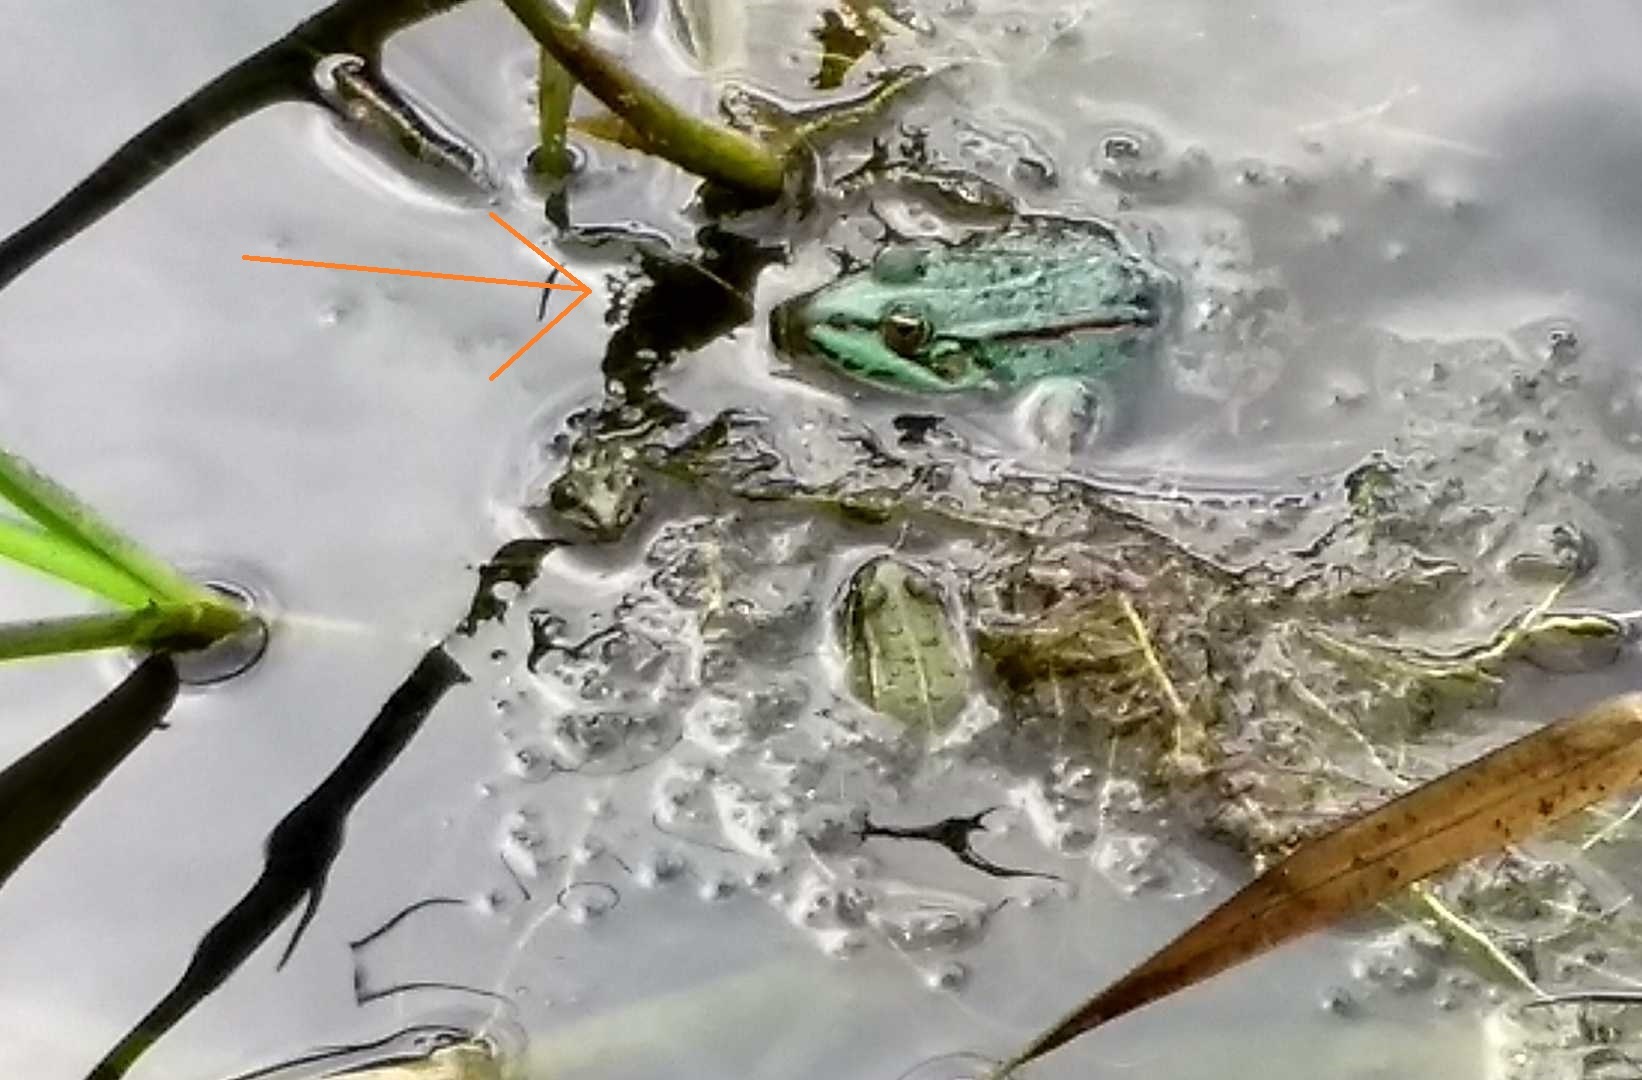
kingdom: Animalia
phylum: Chordata
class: Amphibia
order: Anura
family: Ranidae
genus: Pelophylax
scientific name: Pelophylax
